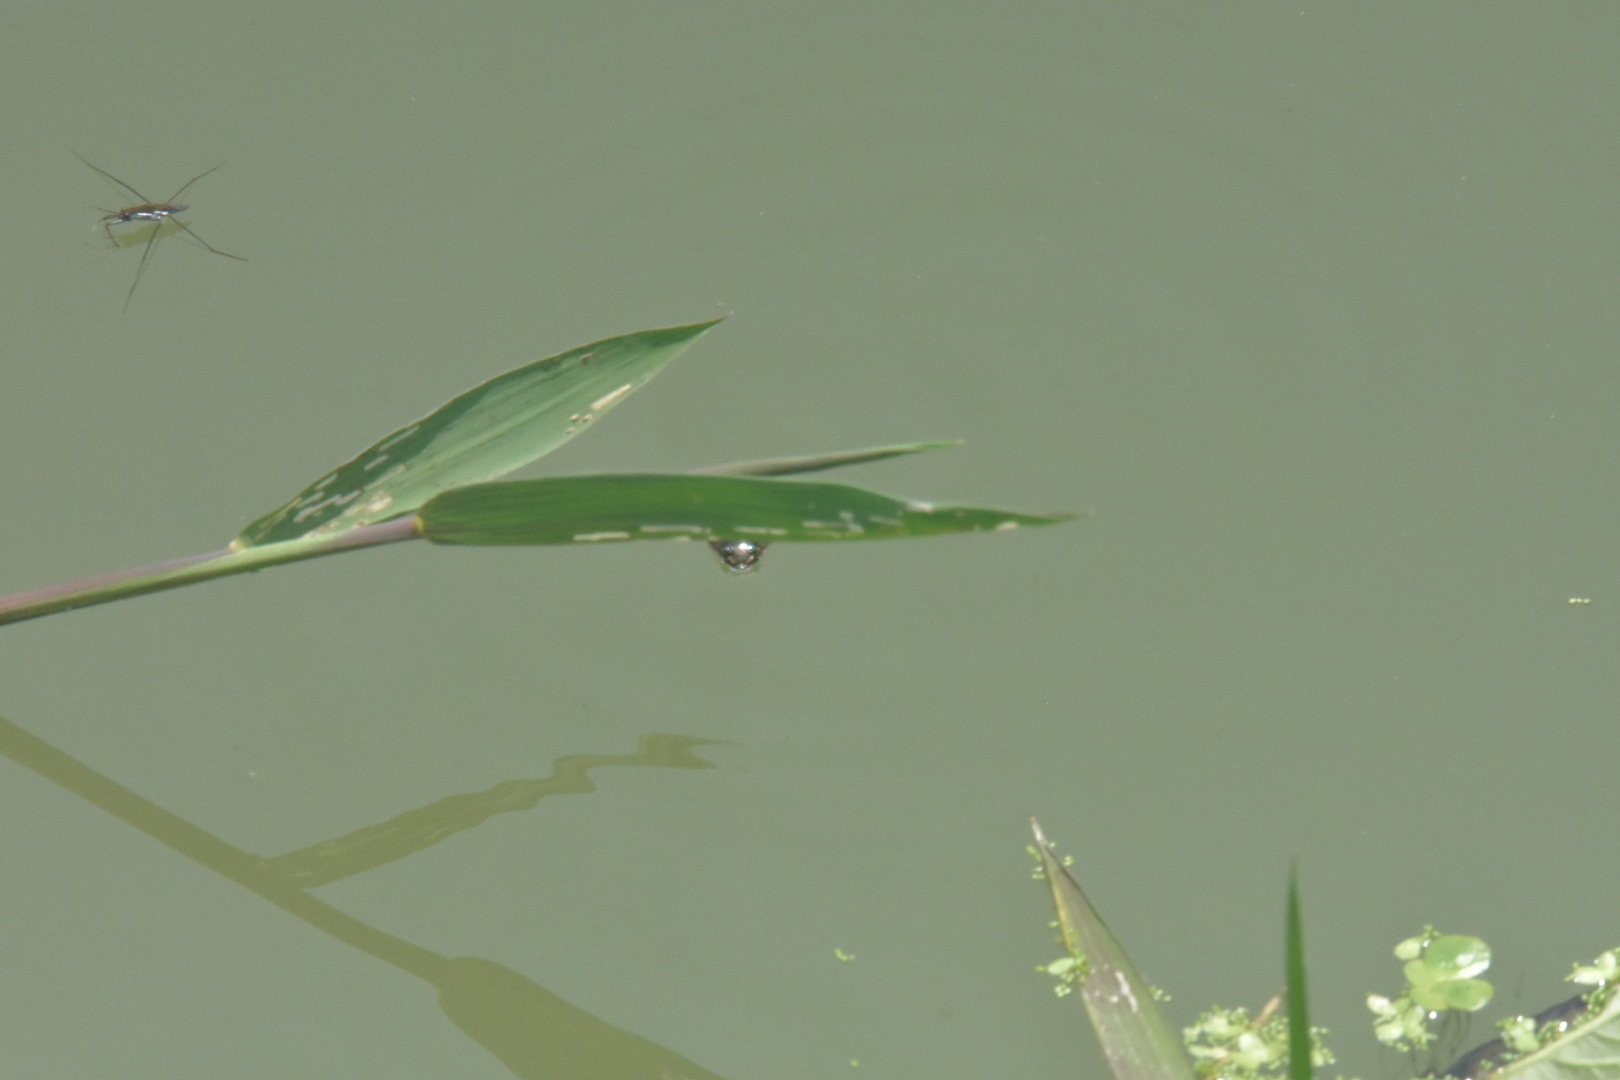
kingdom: Animalia
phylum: Arthropoda
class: Insecta
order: Hemiptera
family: Gerridae
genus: Limnogonus
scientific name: Limnogonus
